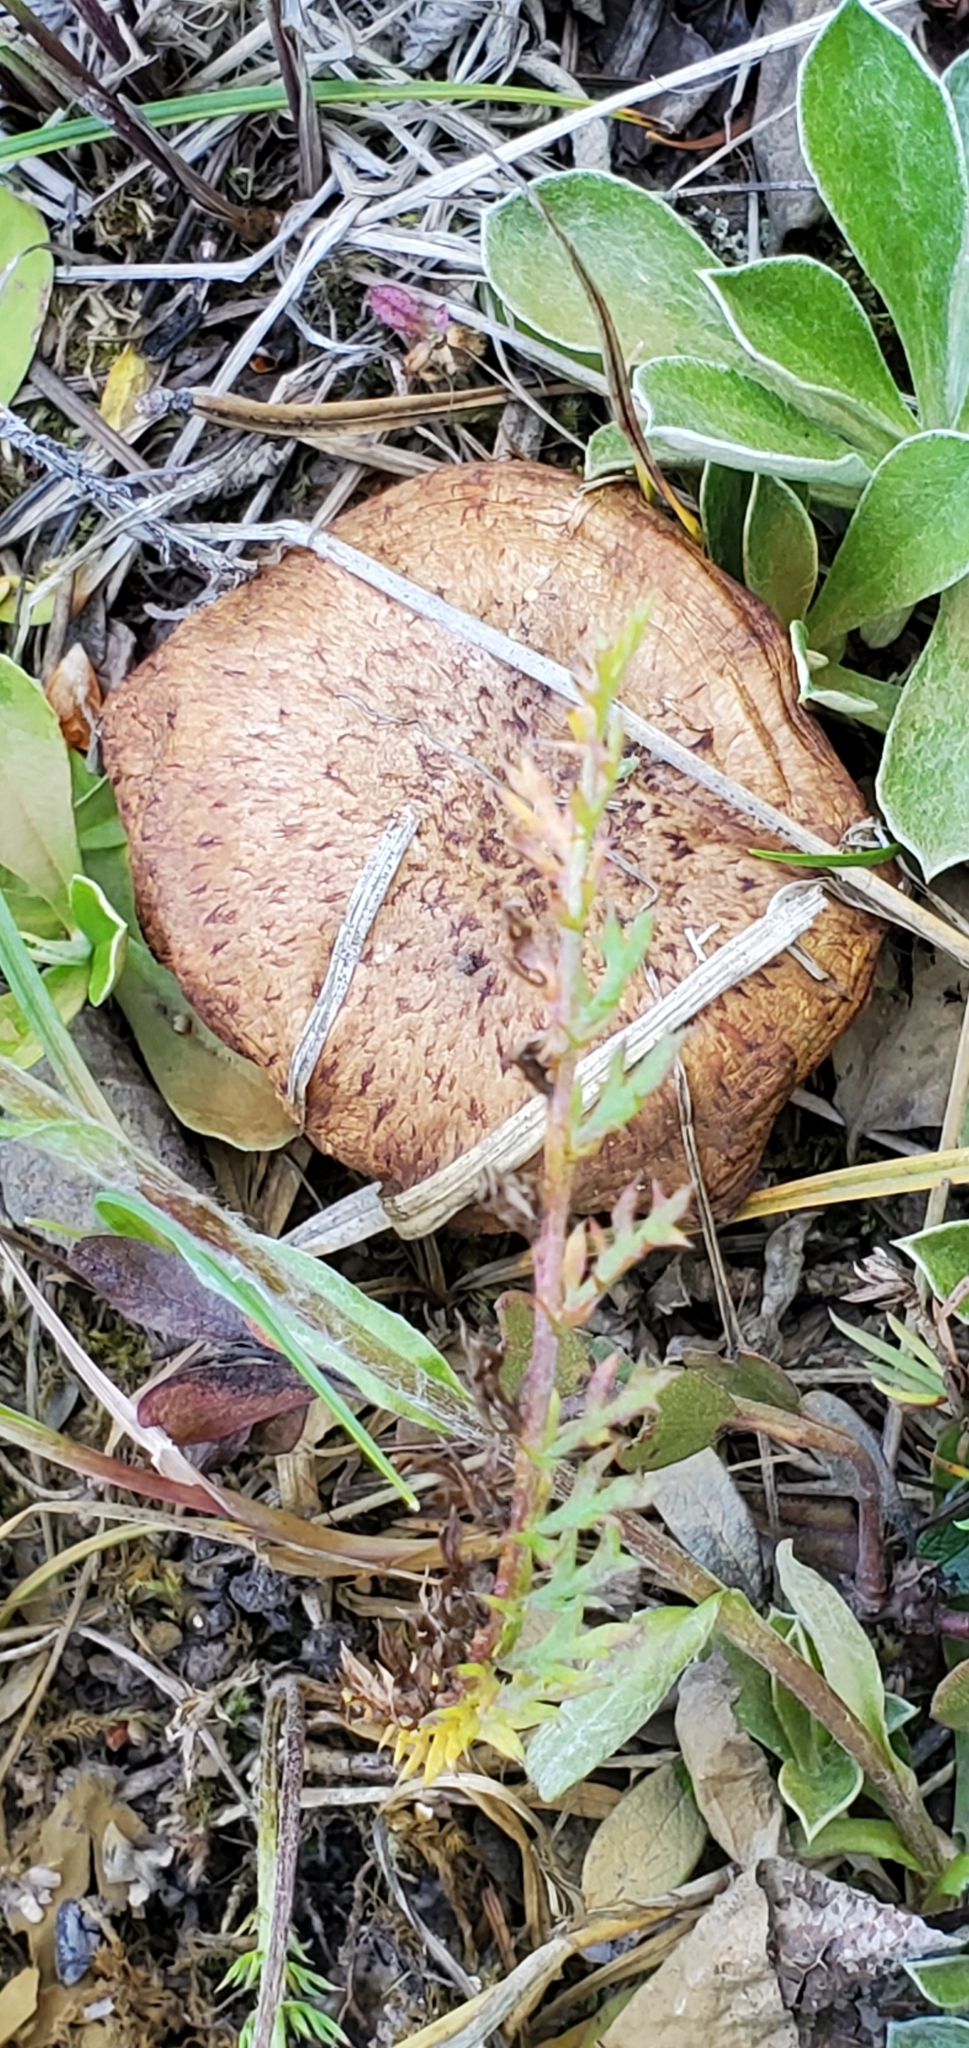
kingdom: Fungi
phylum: Basidiomycota
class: Agaricomycetes
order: Boletales
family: Suillaceae
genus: Suillus
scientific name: Suillus caerulescens
